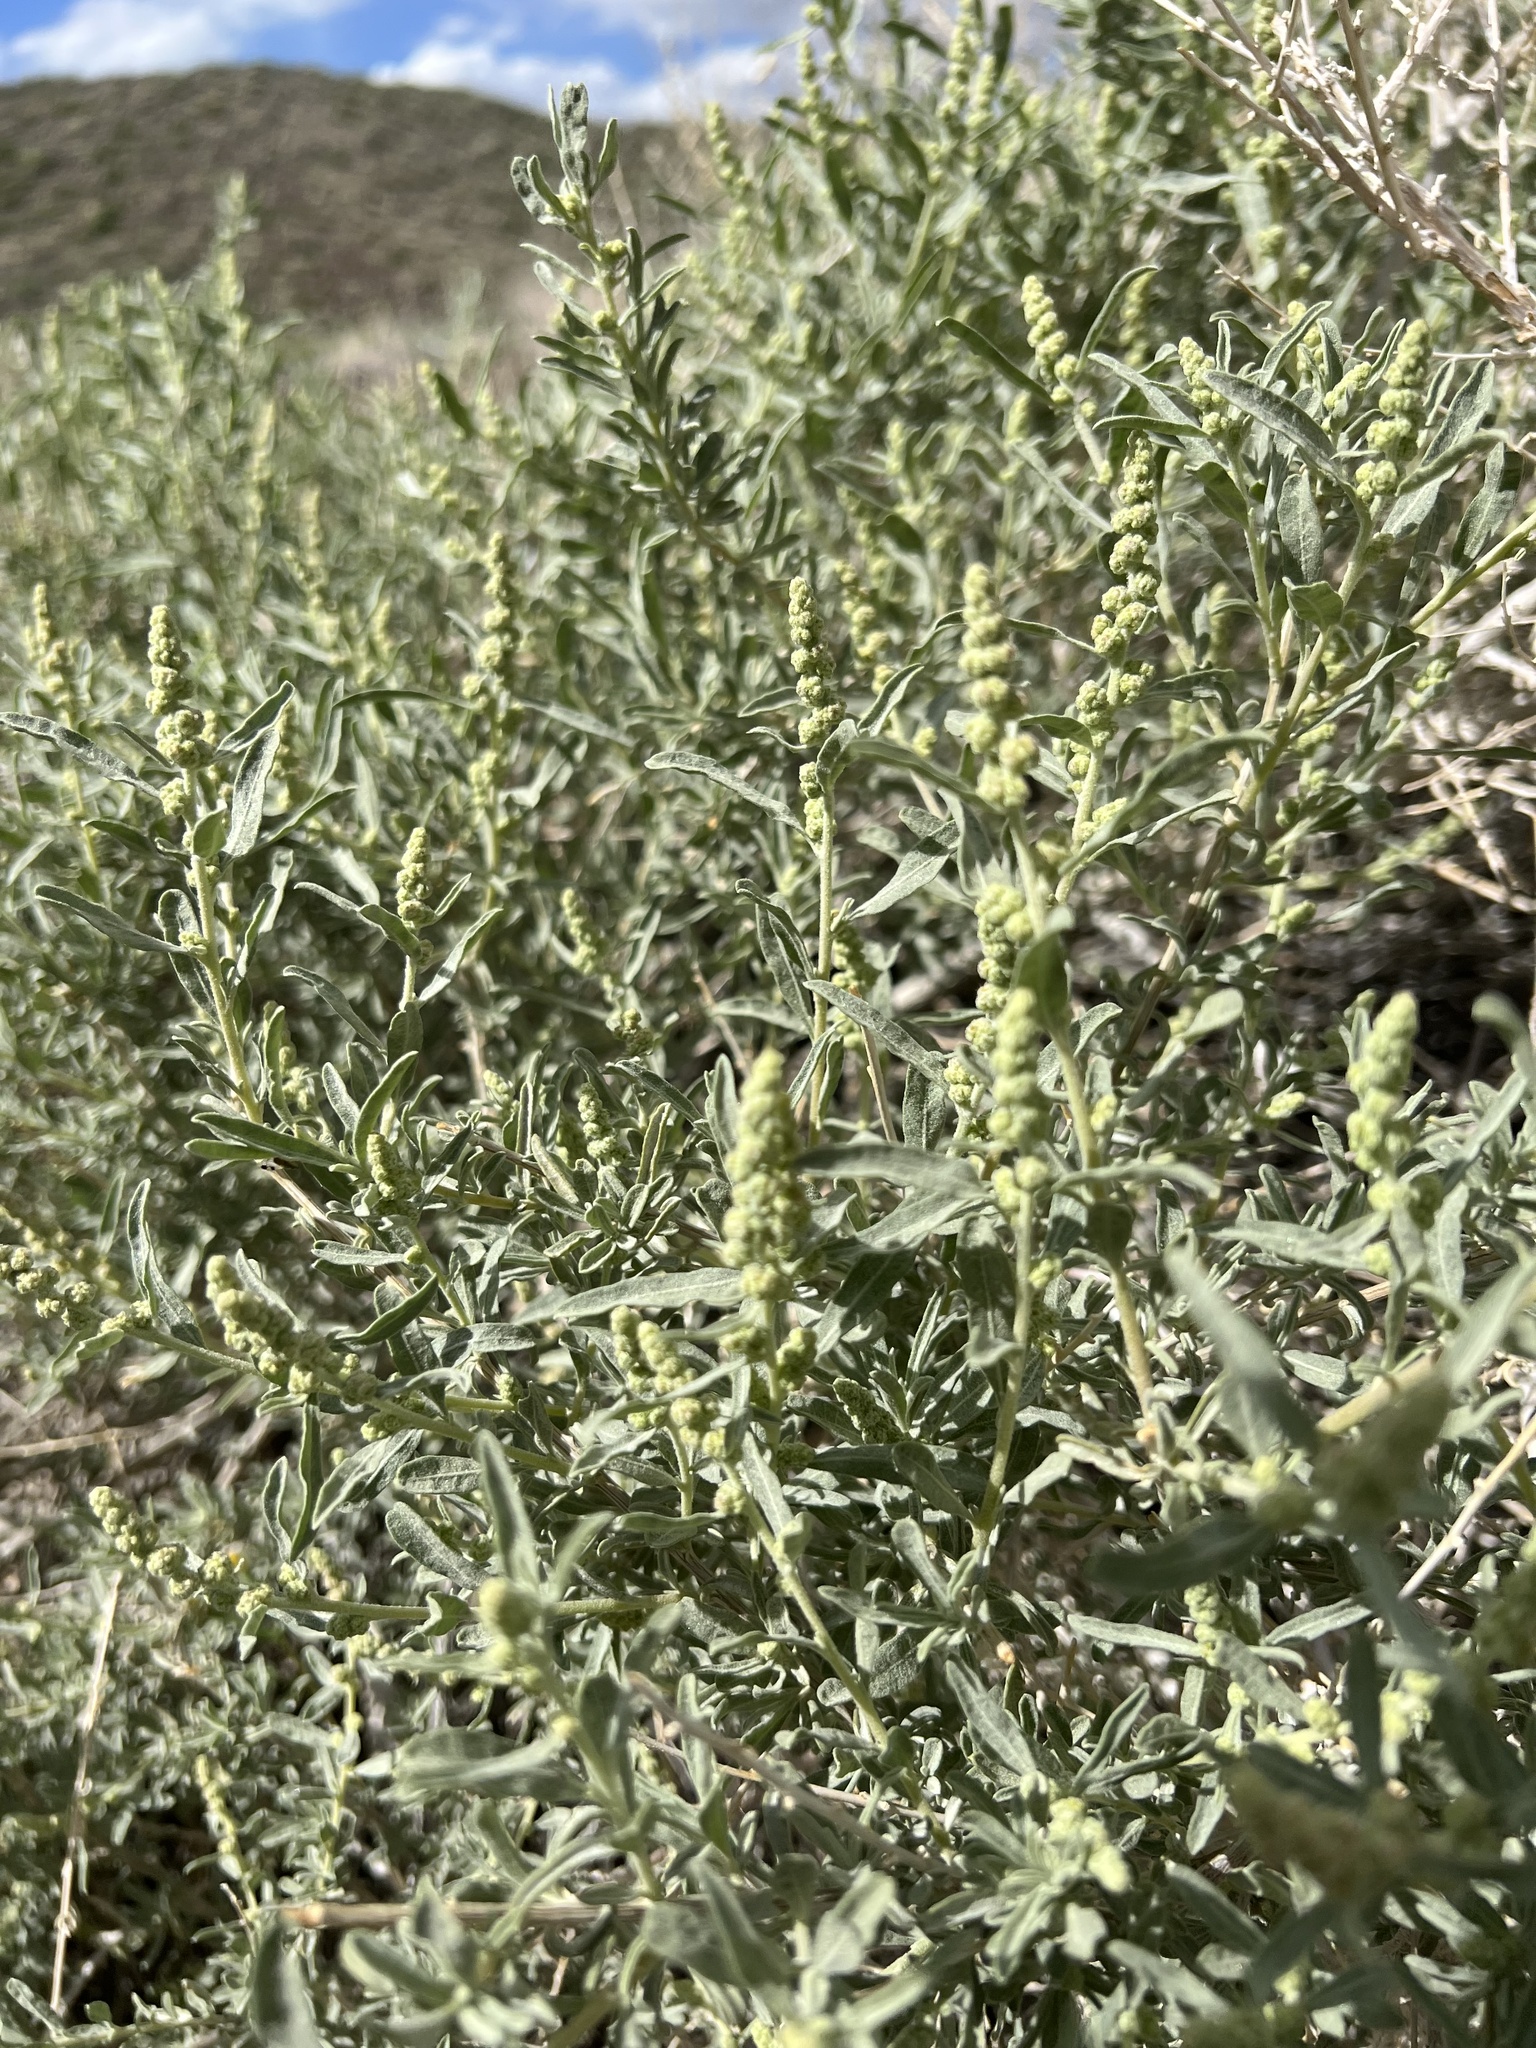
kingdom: Plantae
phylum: Tracheophyta
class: Magnoliopsida
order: Caryophyllales
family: Amaranthaceae
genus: Atriplex
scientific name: Atriplex canescens
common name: Four-wing saltbush
